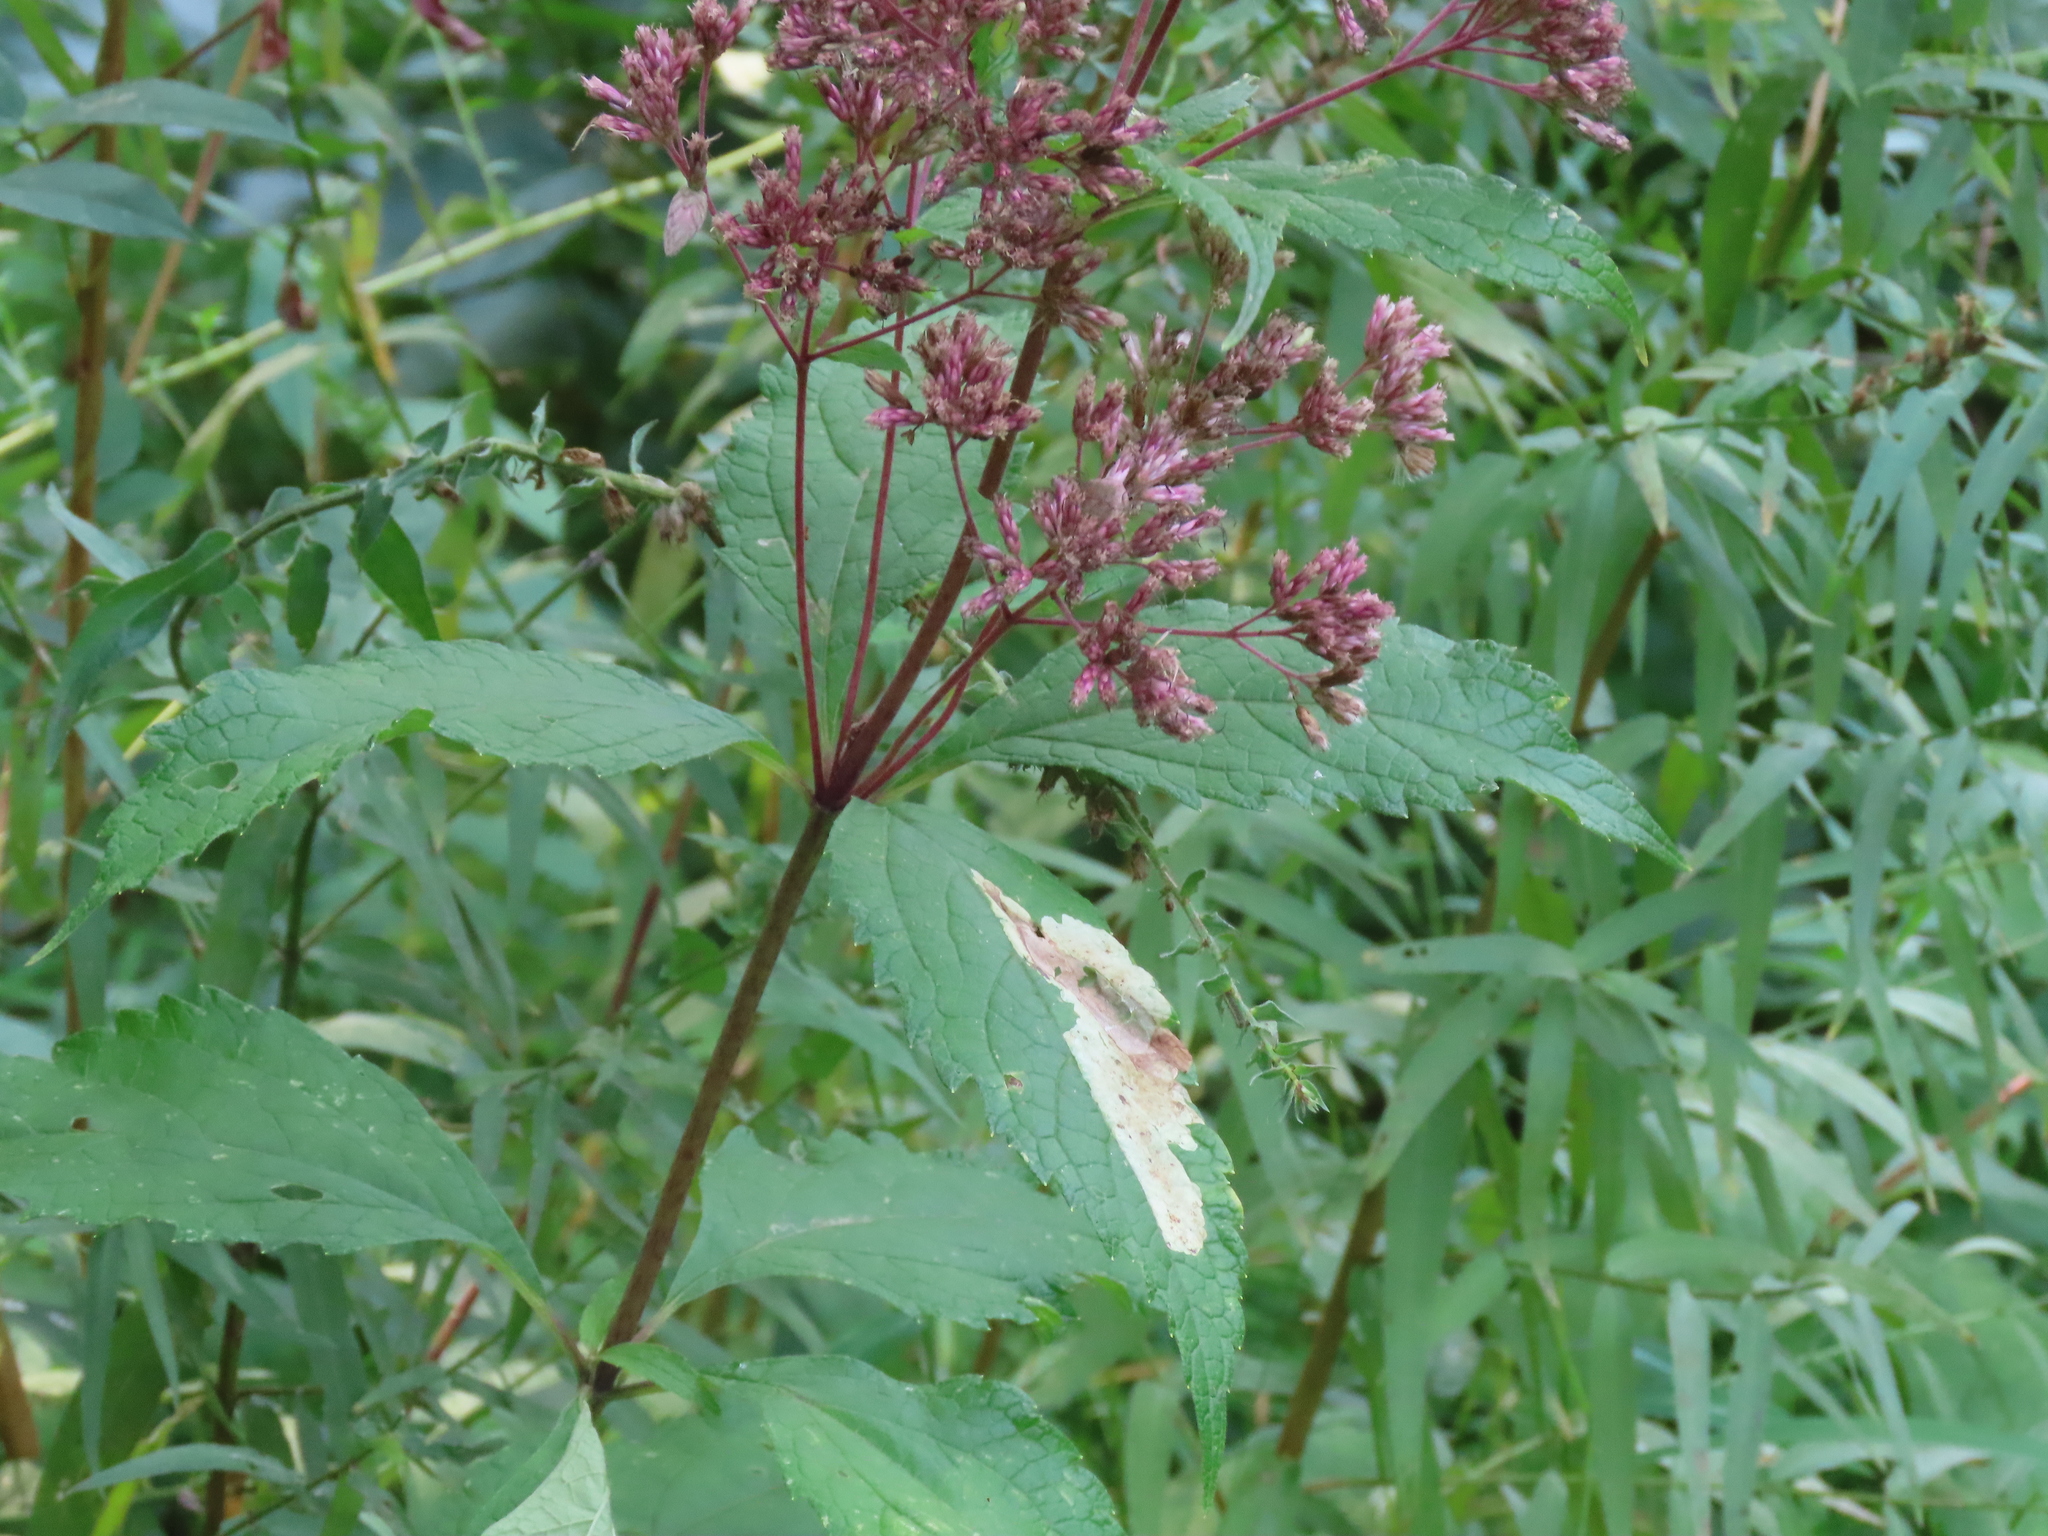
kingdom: Animalia
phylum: Arthropoda
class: Insecta
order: Diptera
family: Agromyzidae
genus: Calycomyza
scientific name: Calycomyza flavinotum
